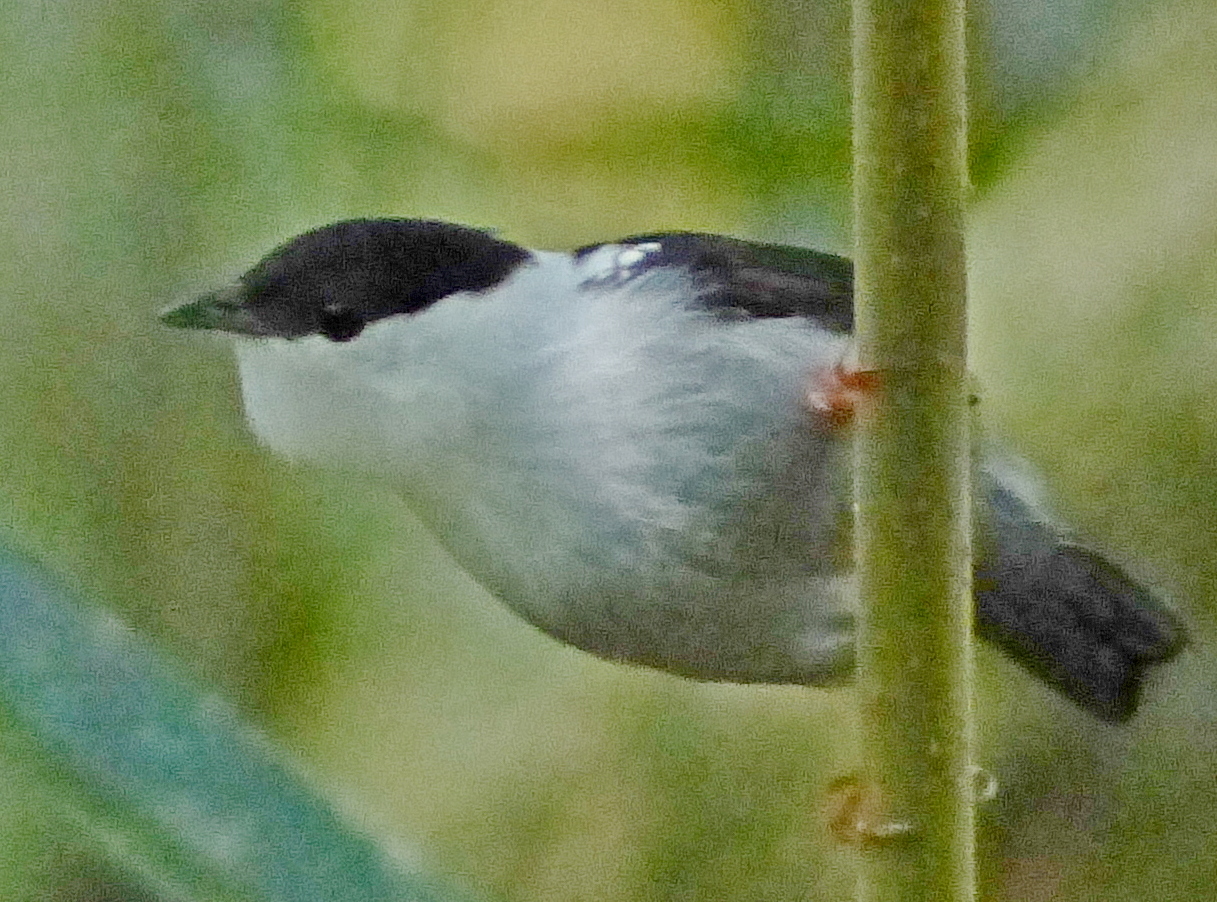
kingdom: Animalia
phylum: Chordata
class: Aves
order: Passeriformes
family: Pipridae
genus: Manacus
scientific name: Manacus manacus
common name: White-bearded manakin
